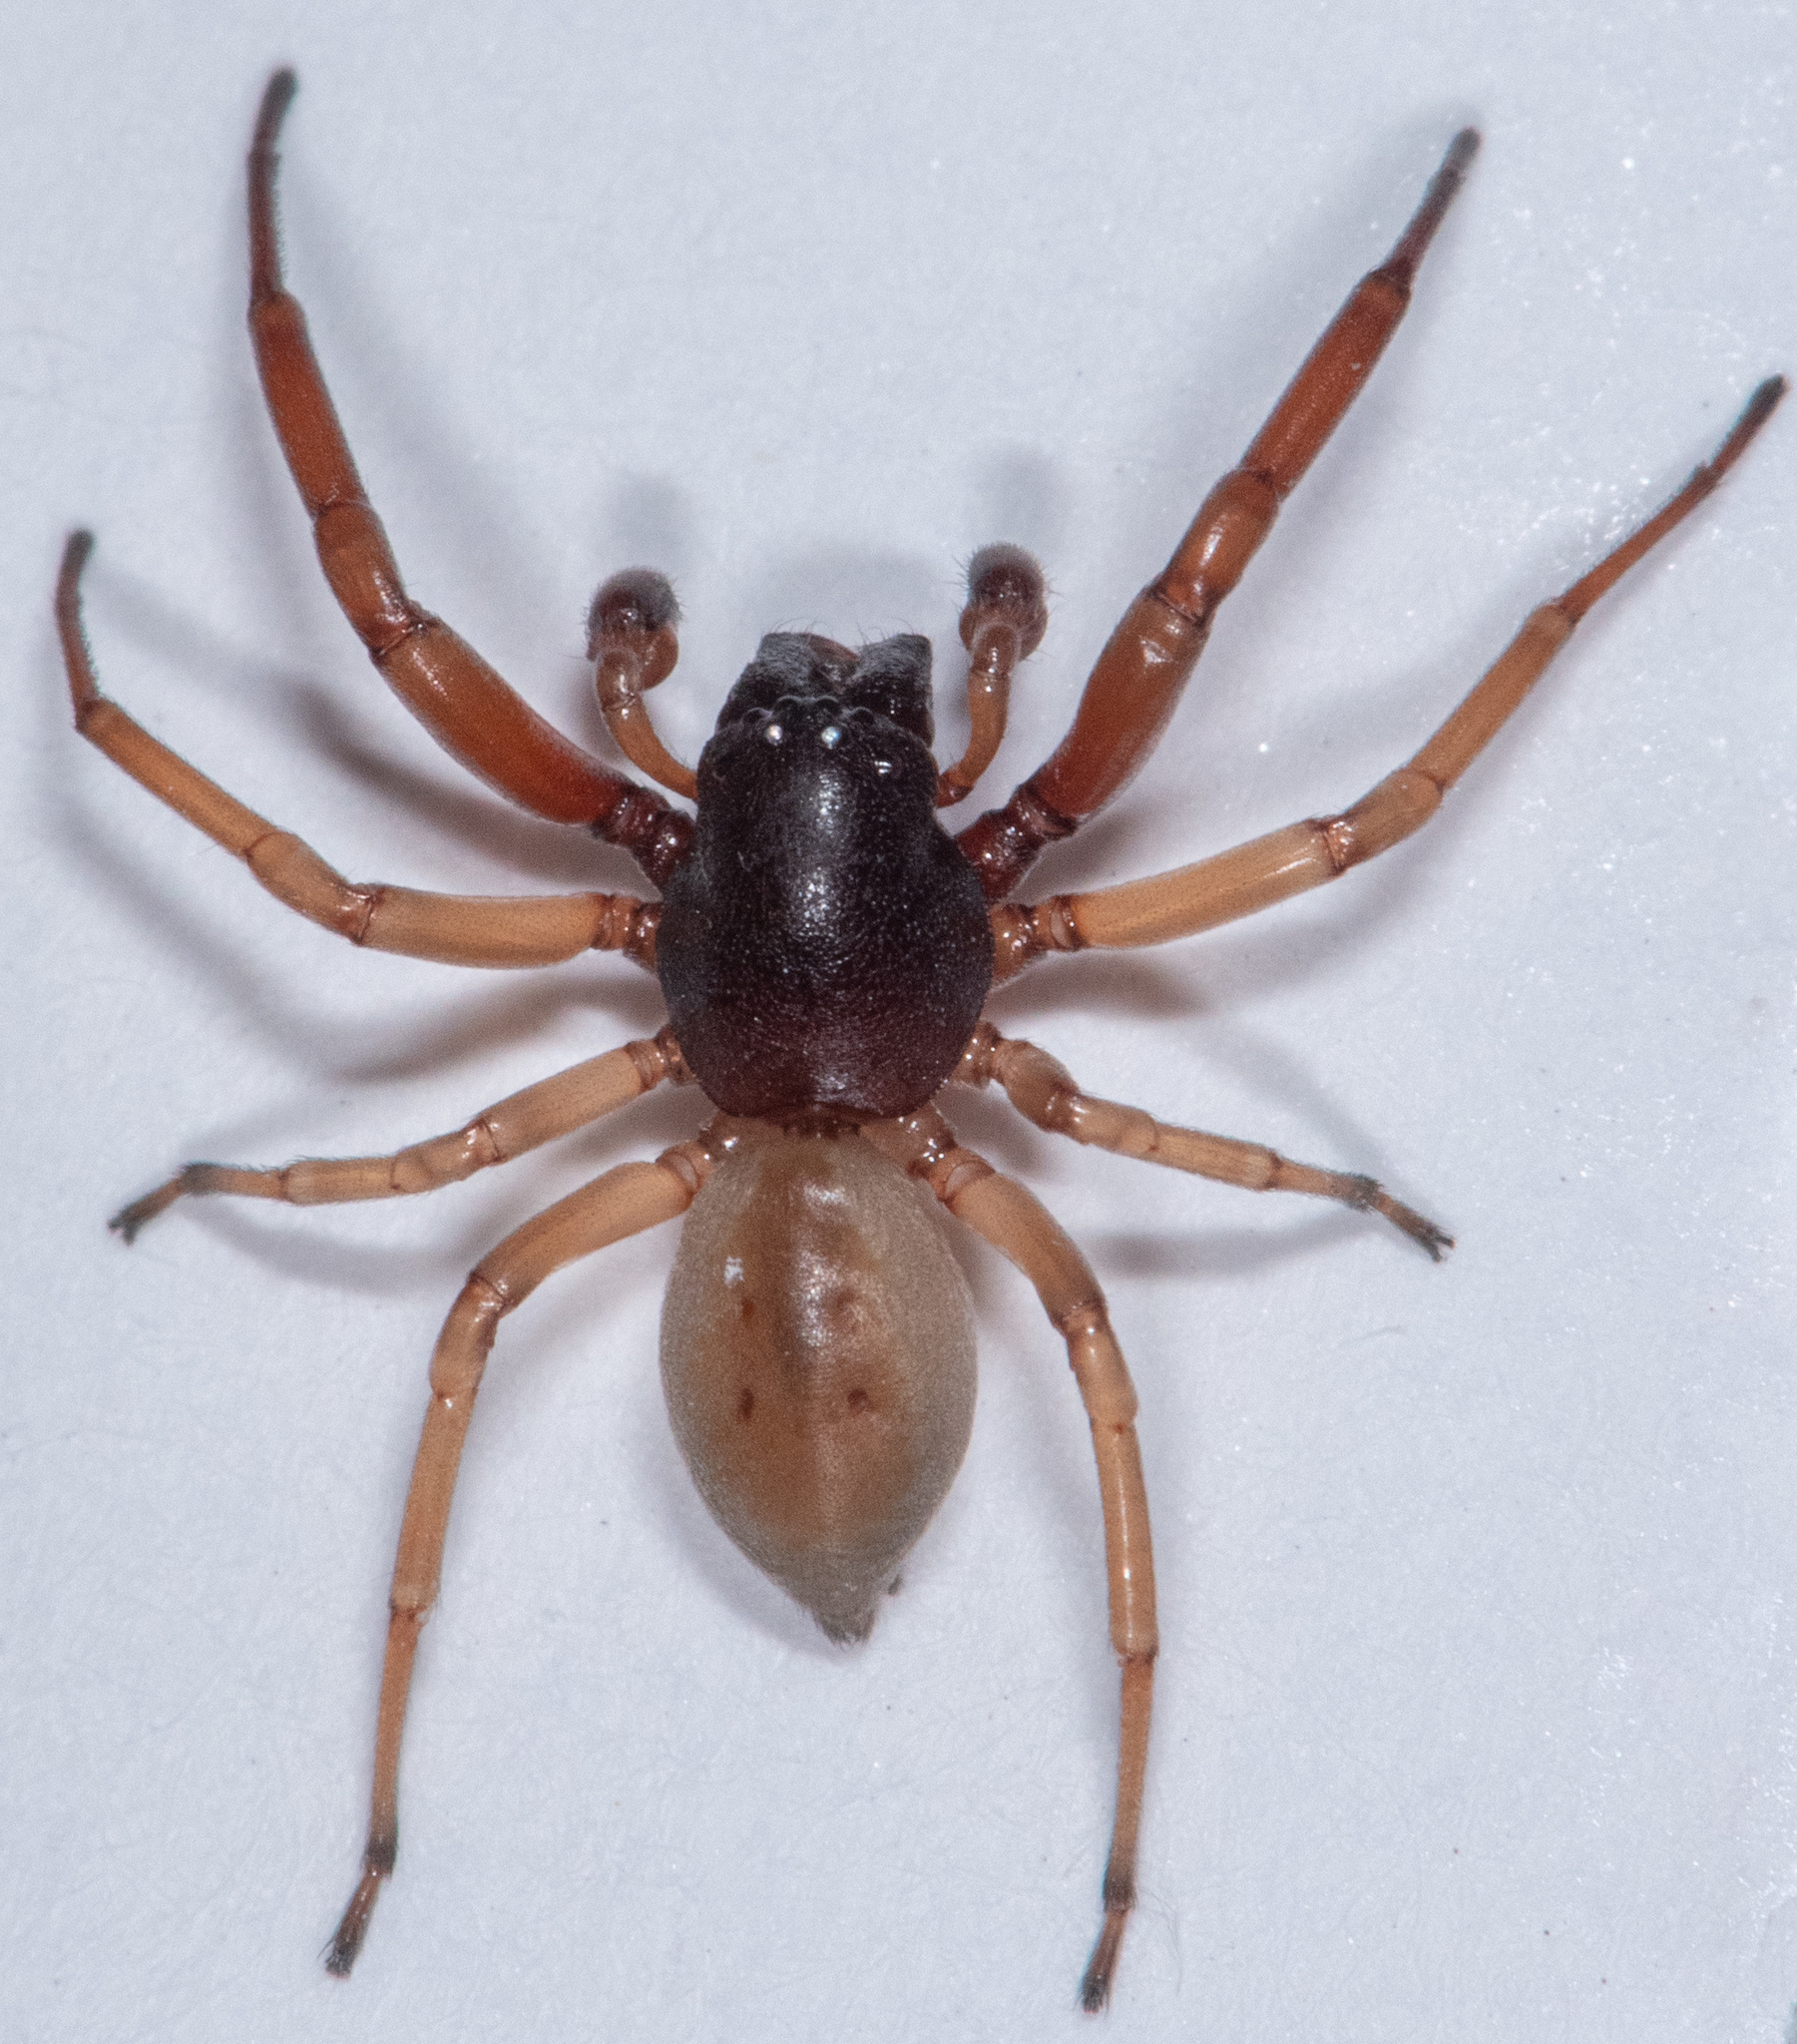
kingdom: Animalia
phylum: Arthropoda
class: Arachnida
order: Araneae
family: Trachelidae
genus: Trachelas
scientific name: Trachelas pacificus
